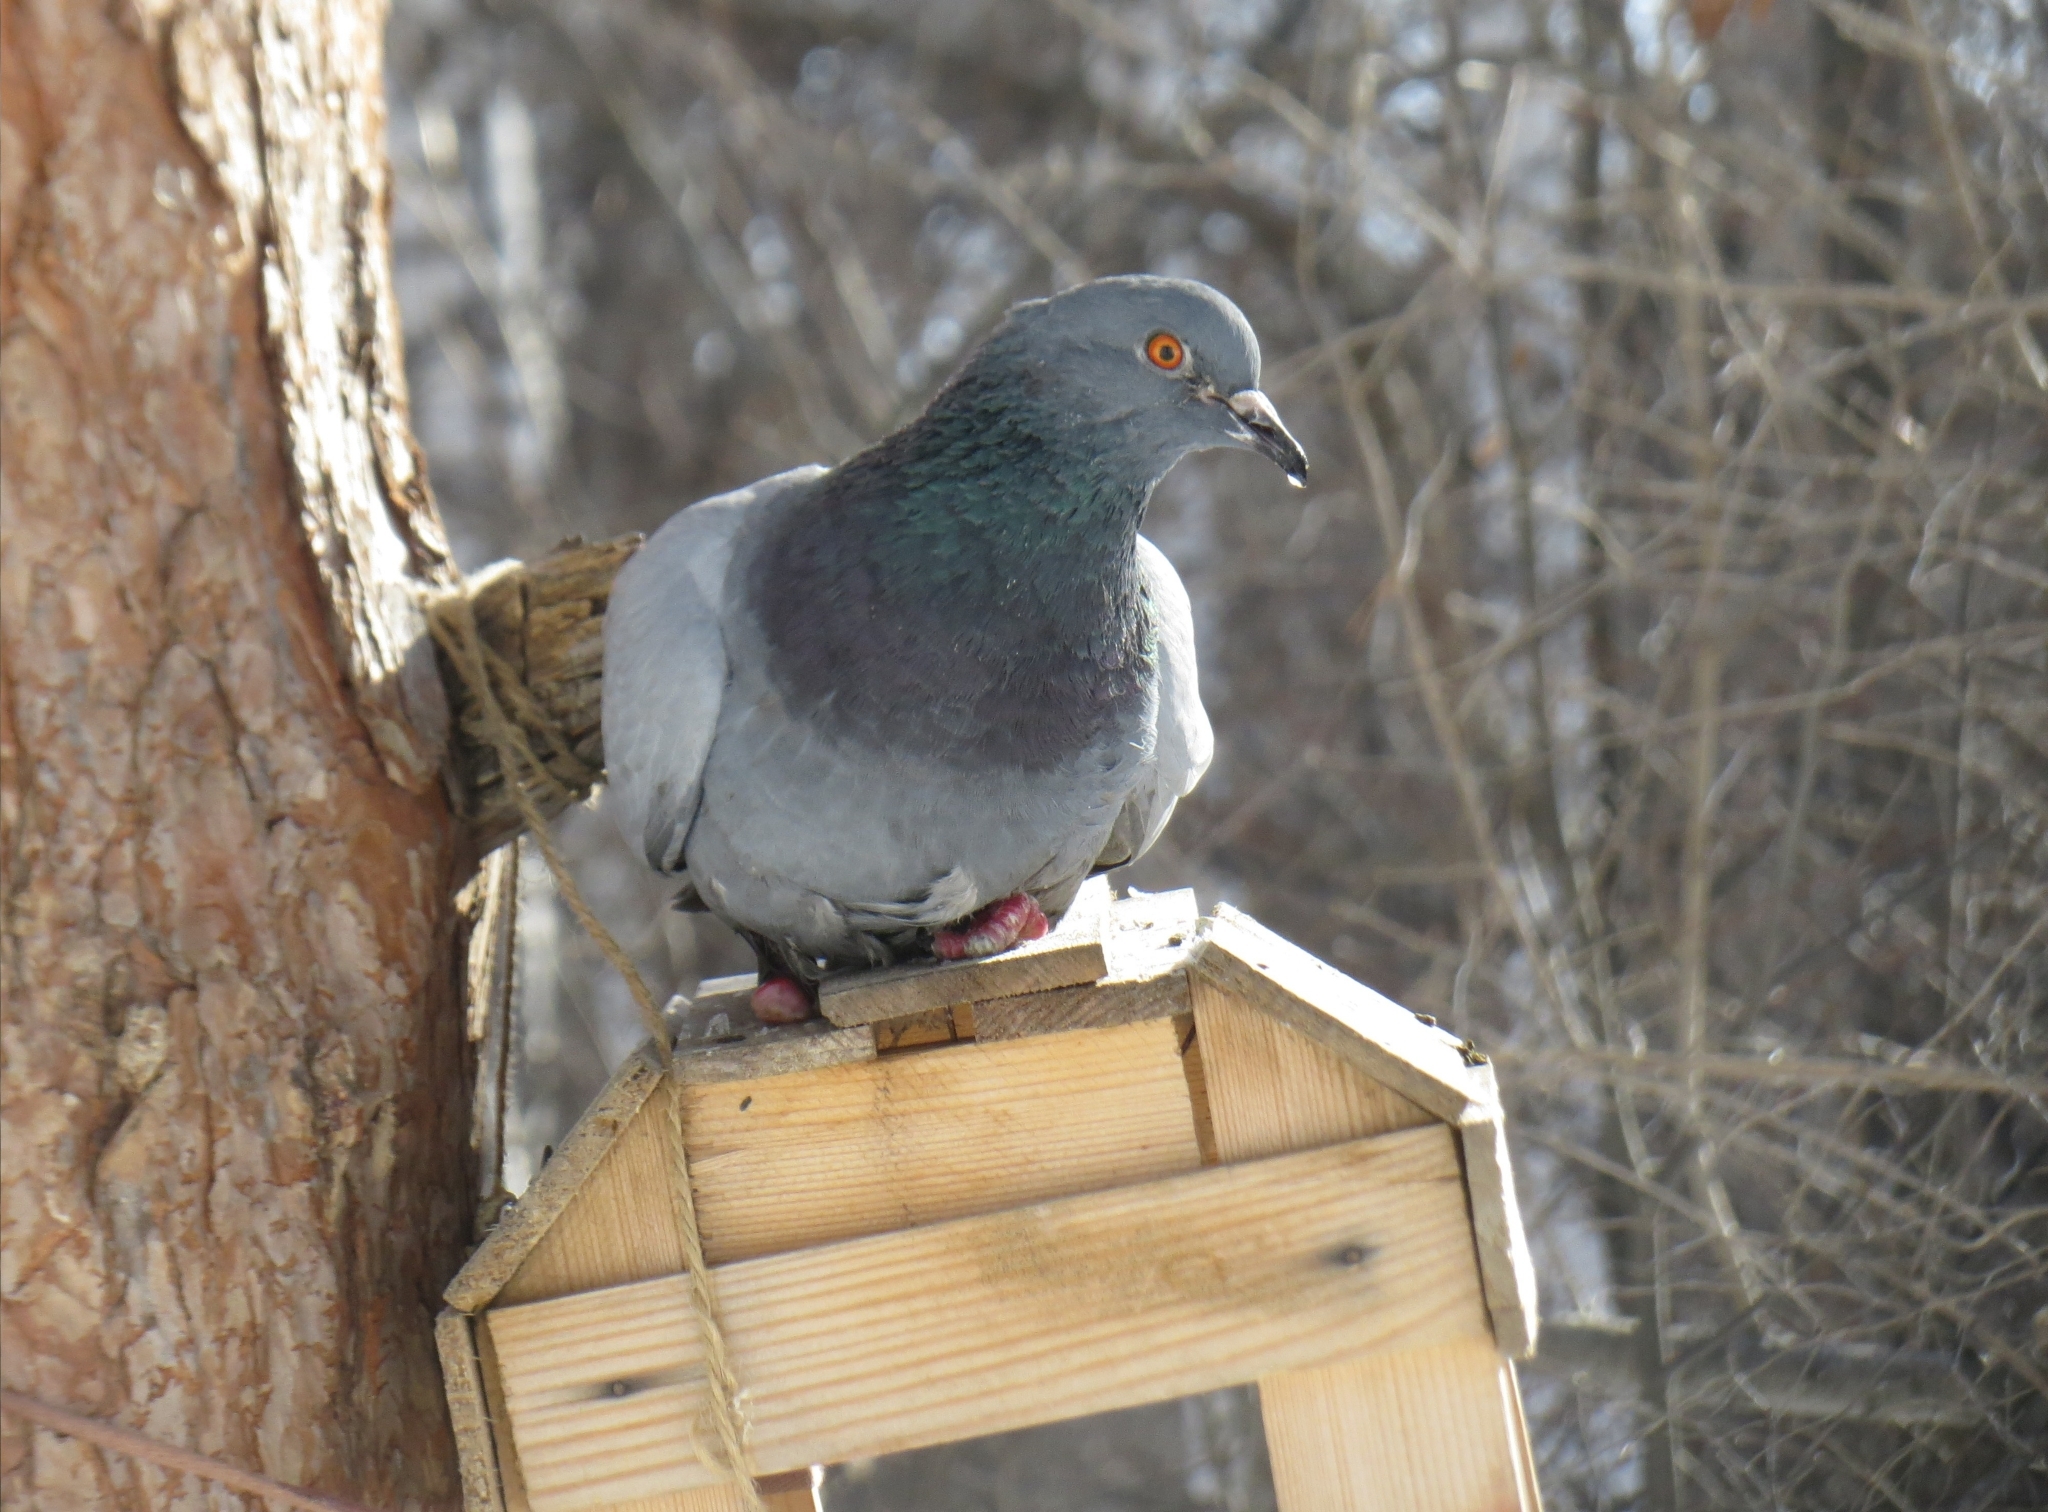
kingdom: Animalia
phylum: Chordata
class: Aves
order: Columbiformes
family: Columbidae
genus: Columba
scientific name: Columba livia
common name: Rock pigeon
